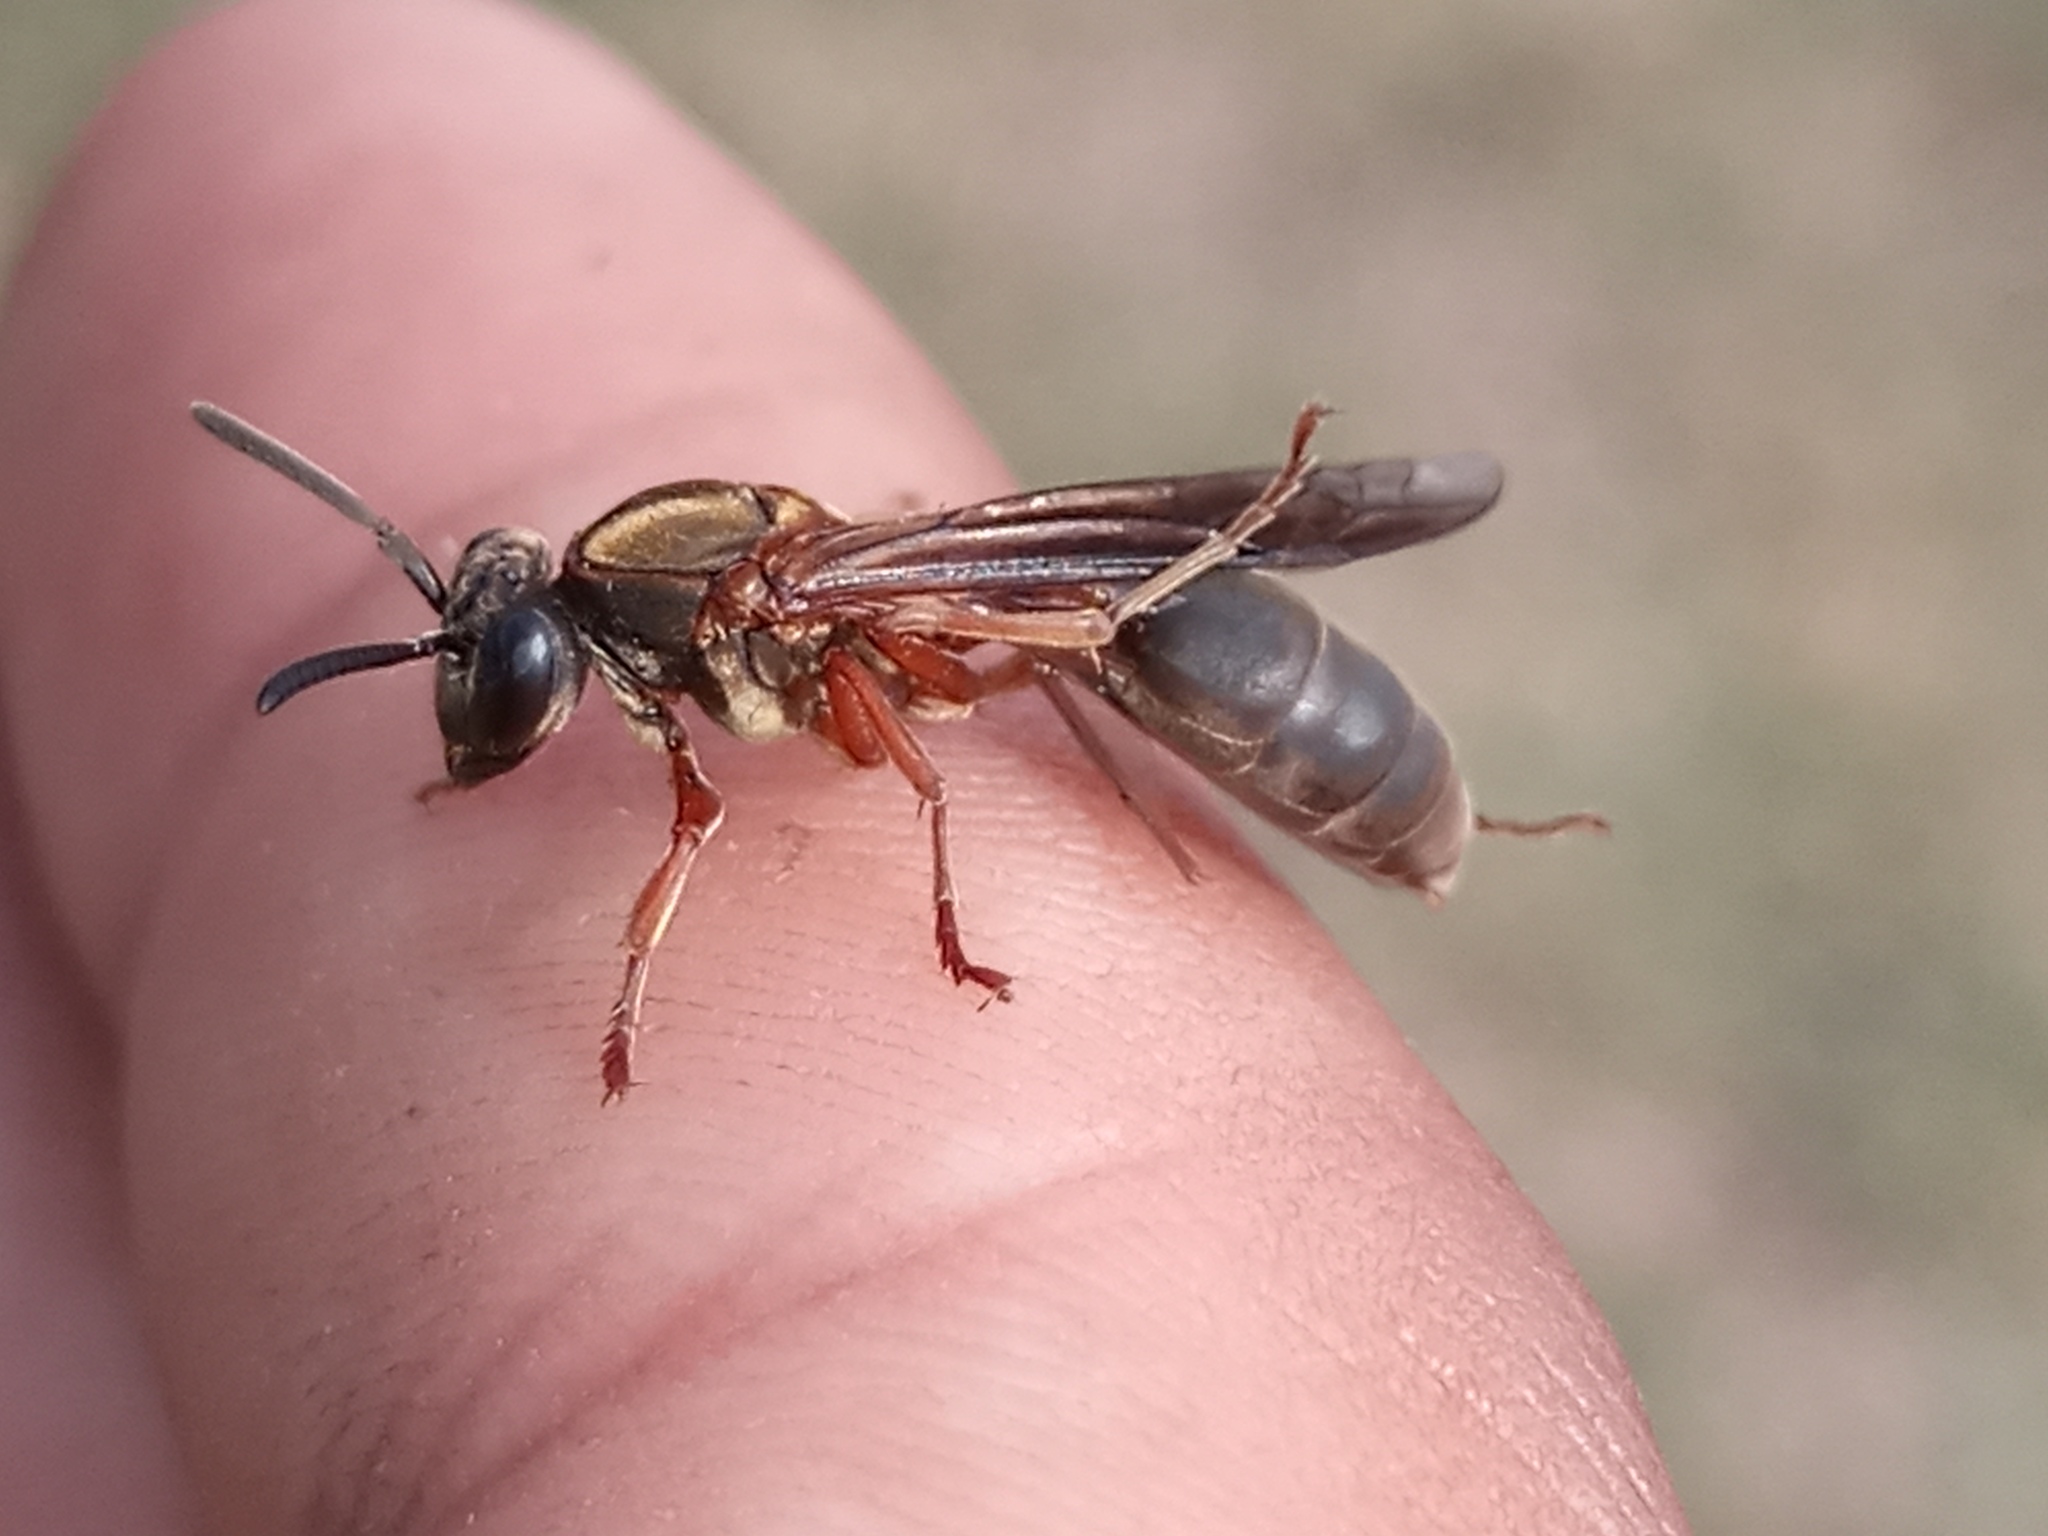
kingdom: Animalia
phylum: Arthropoda
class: Insecta
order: Hymenoptera
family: Eumenidae
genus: Polybia
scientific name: Polybia sericea
